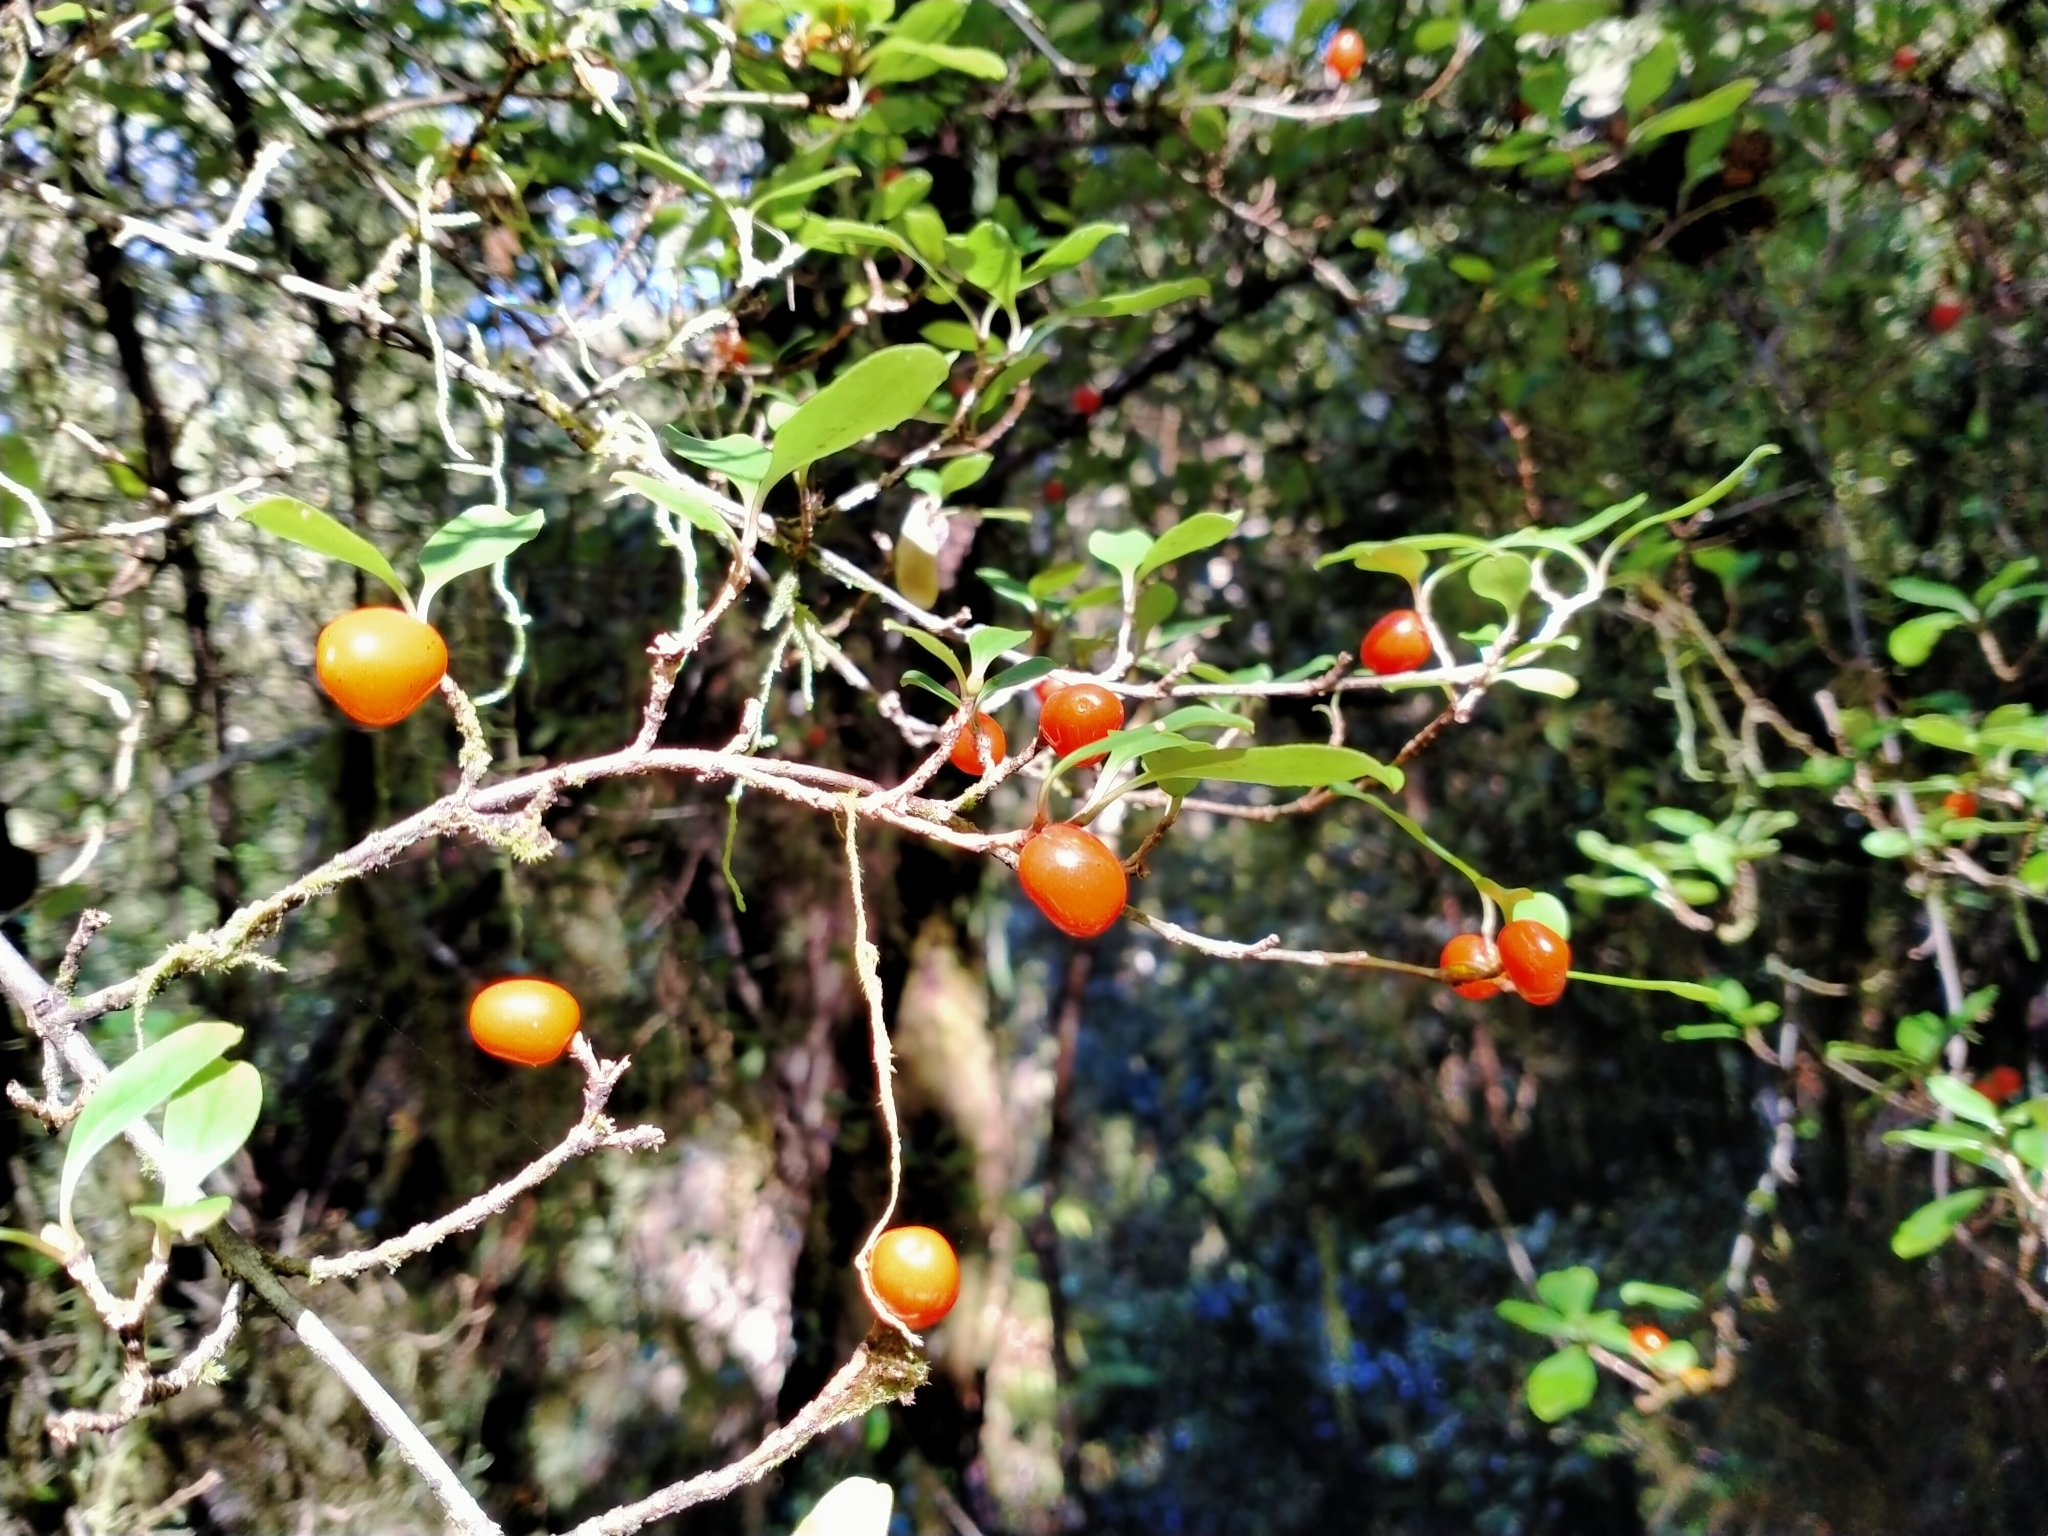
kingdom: Plantae
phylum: Tracheophyta
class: Magnoliopsida
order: Gentianales
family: Rubiaceae
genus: Coprosma
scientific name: Coprosma foetidissima
